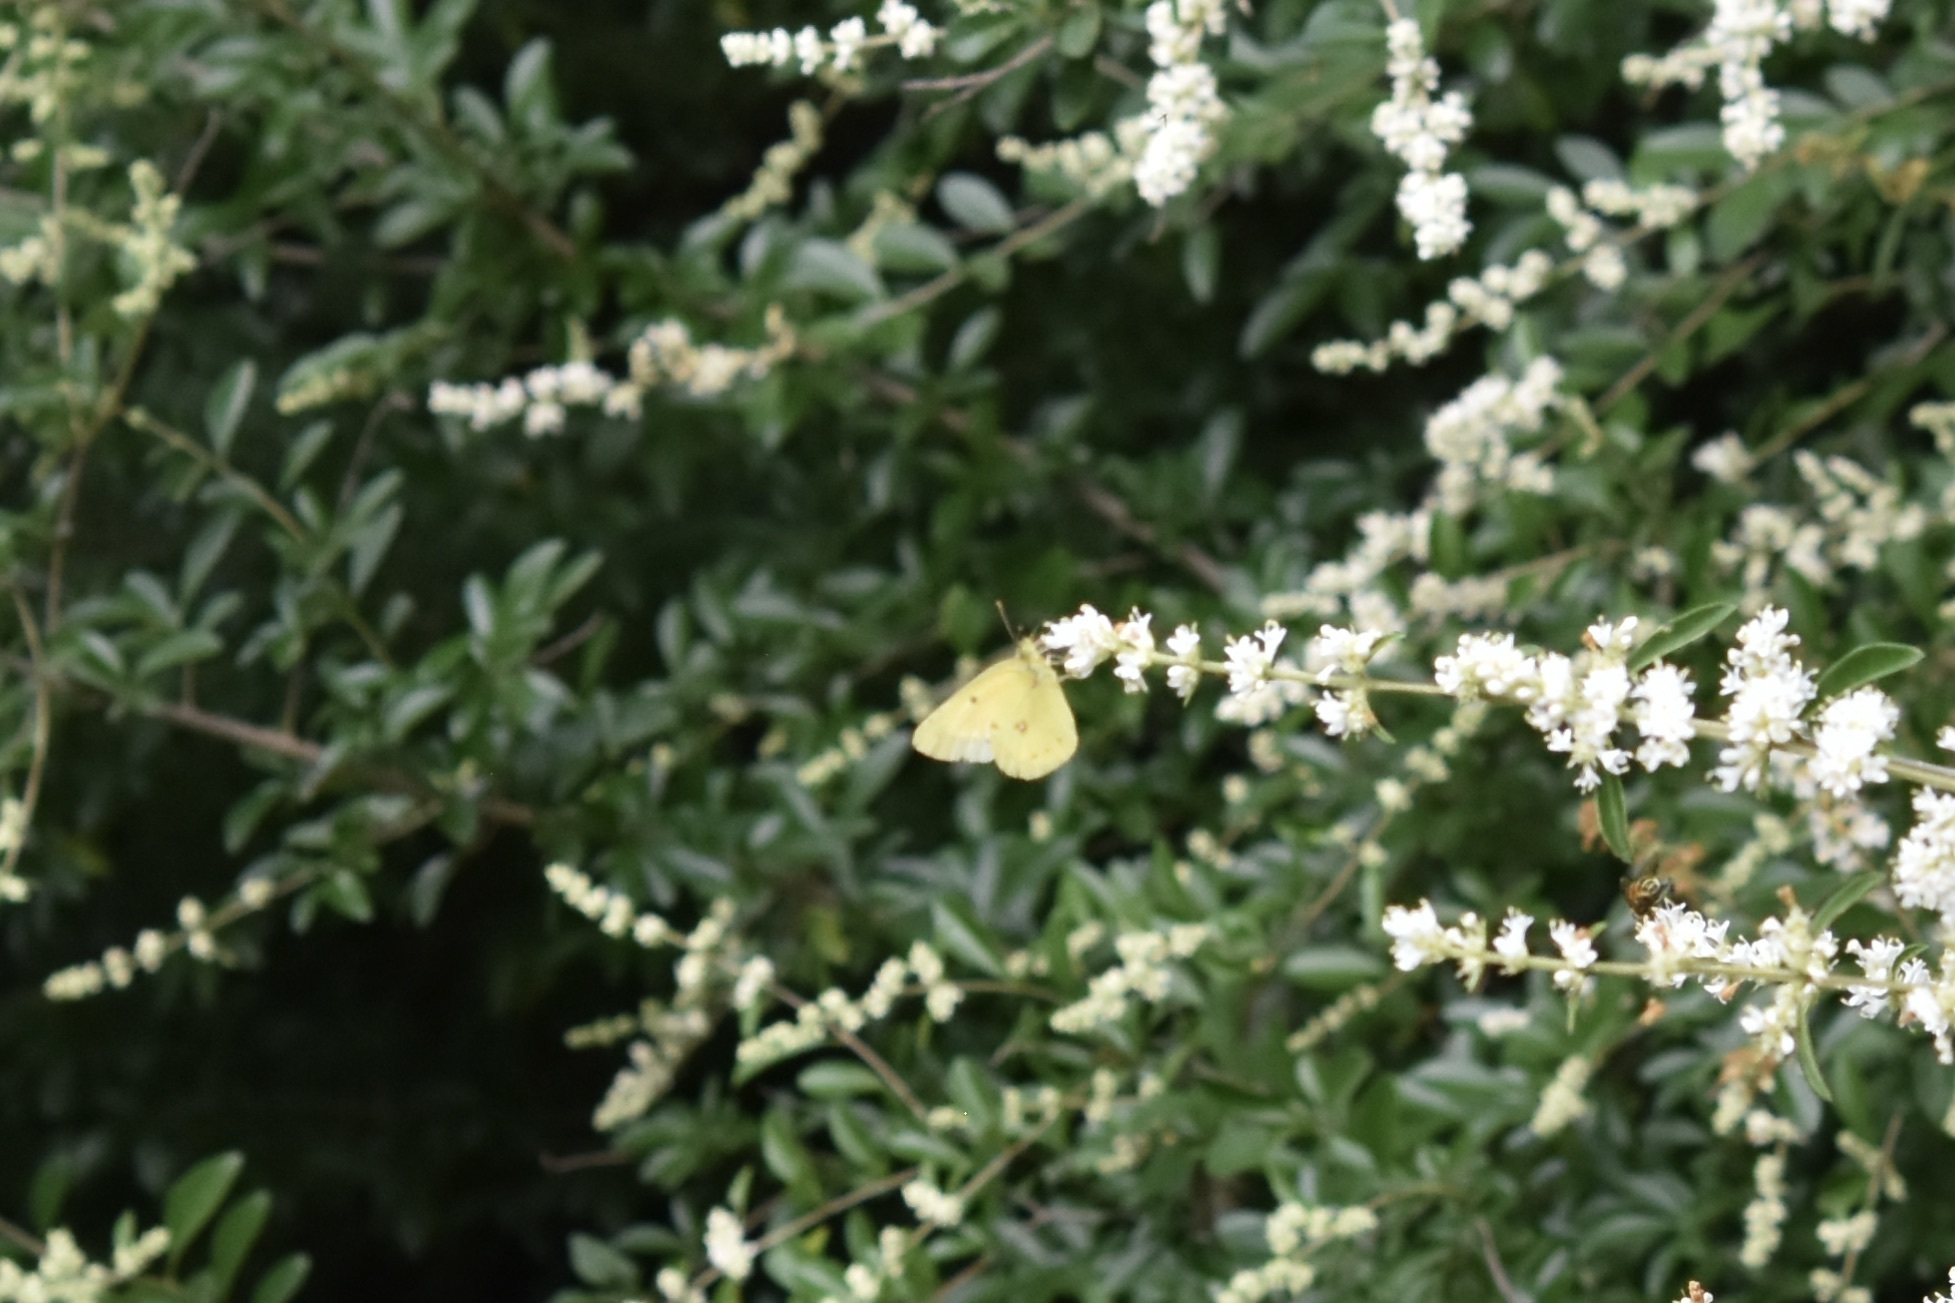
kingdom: Animalia
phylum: Arthropoda
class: Insecta
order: Lepidoptera
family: Pieridae
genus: Colias
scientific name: Colias eurytheme
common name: Alfalfa butterfly
